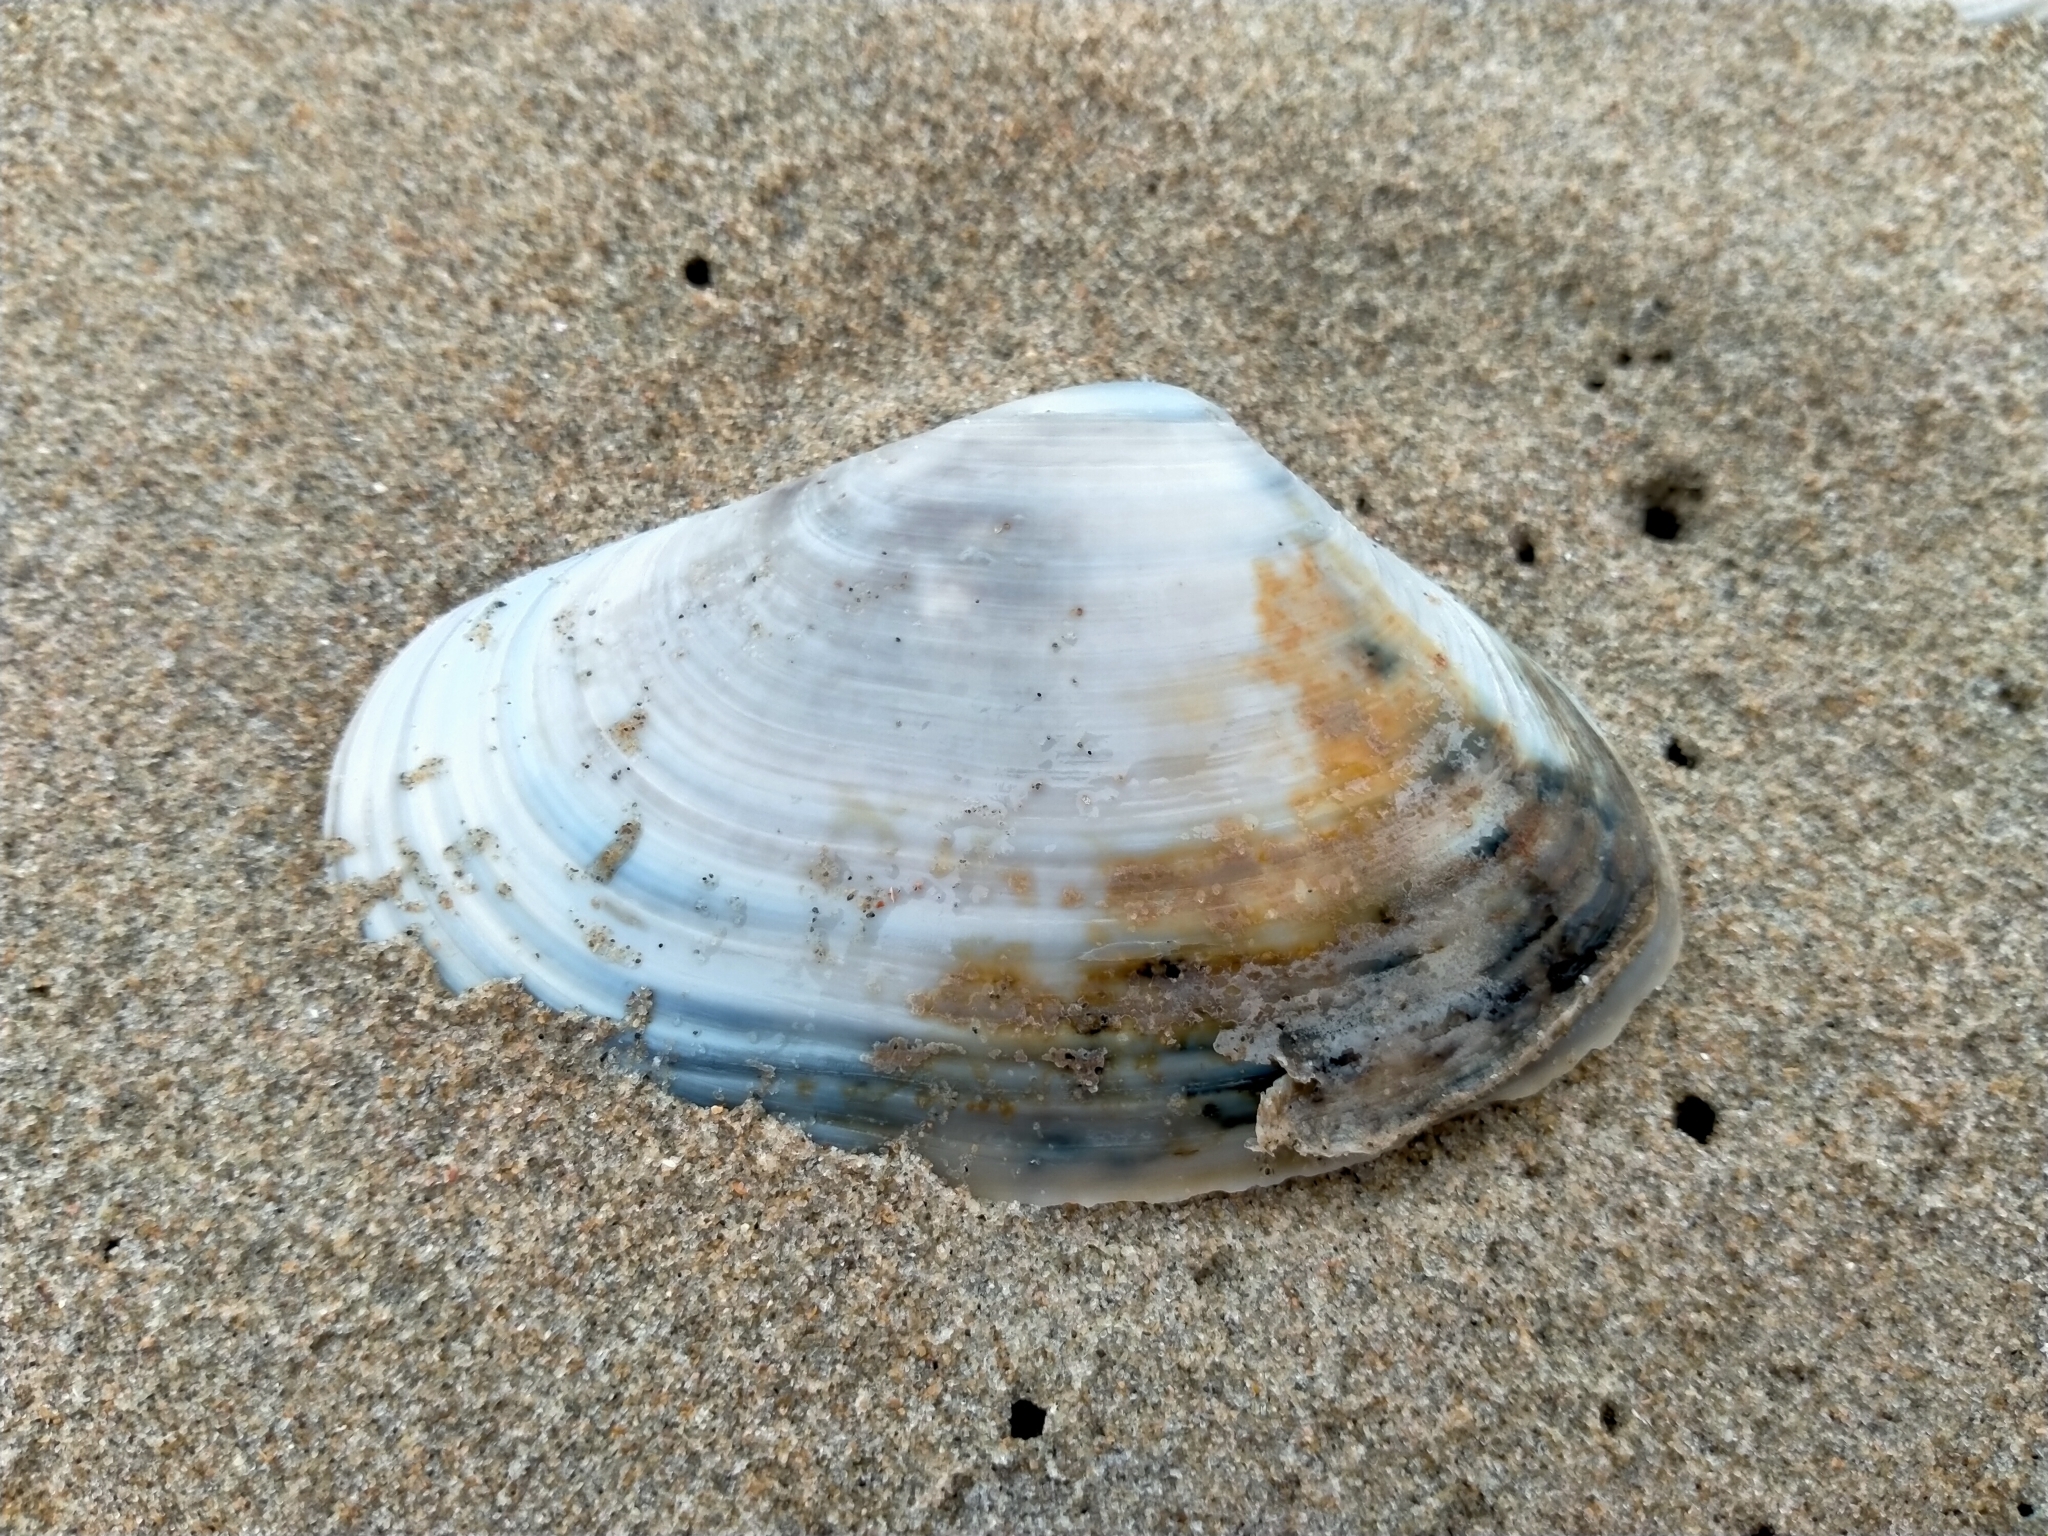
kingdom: Animalia
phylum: Mollusca
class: Bivalvia
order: Venerida
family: Mesodesmatidae
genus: Paphies
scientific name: Paphies donacina
